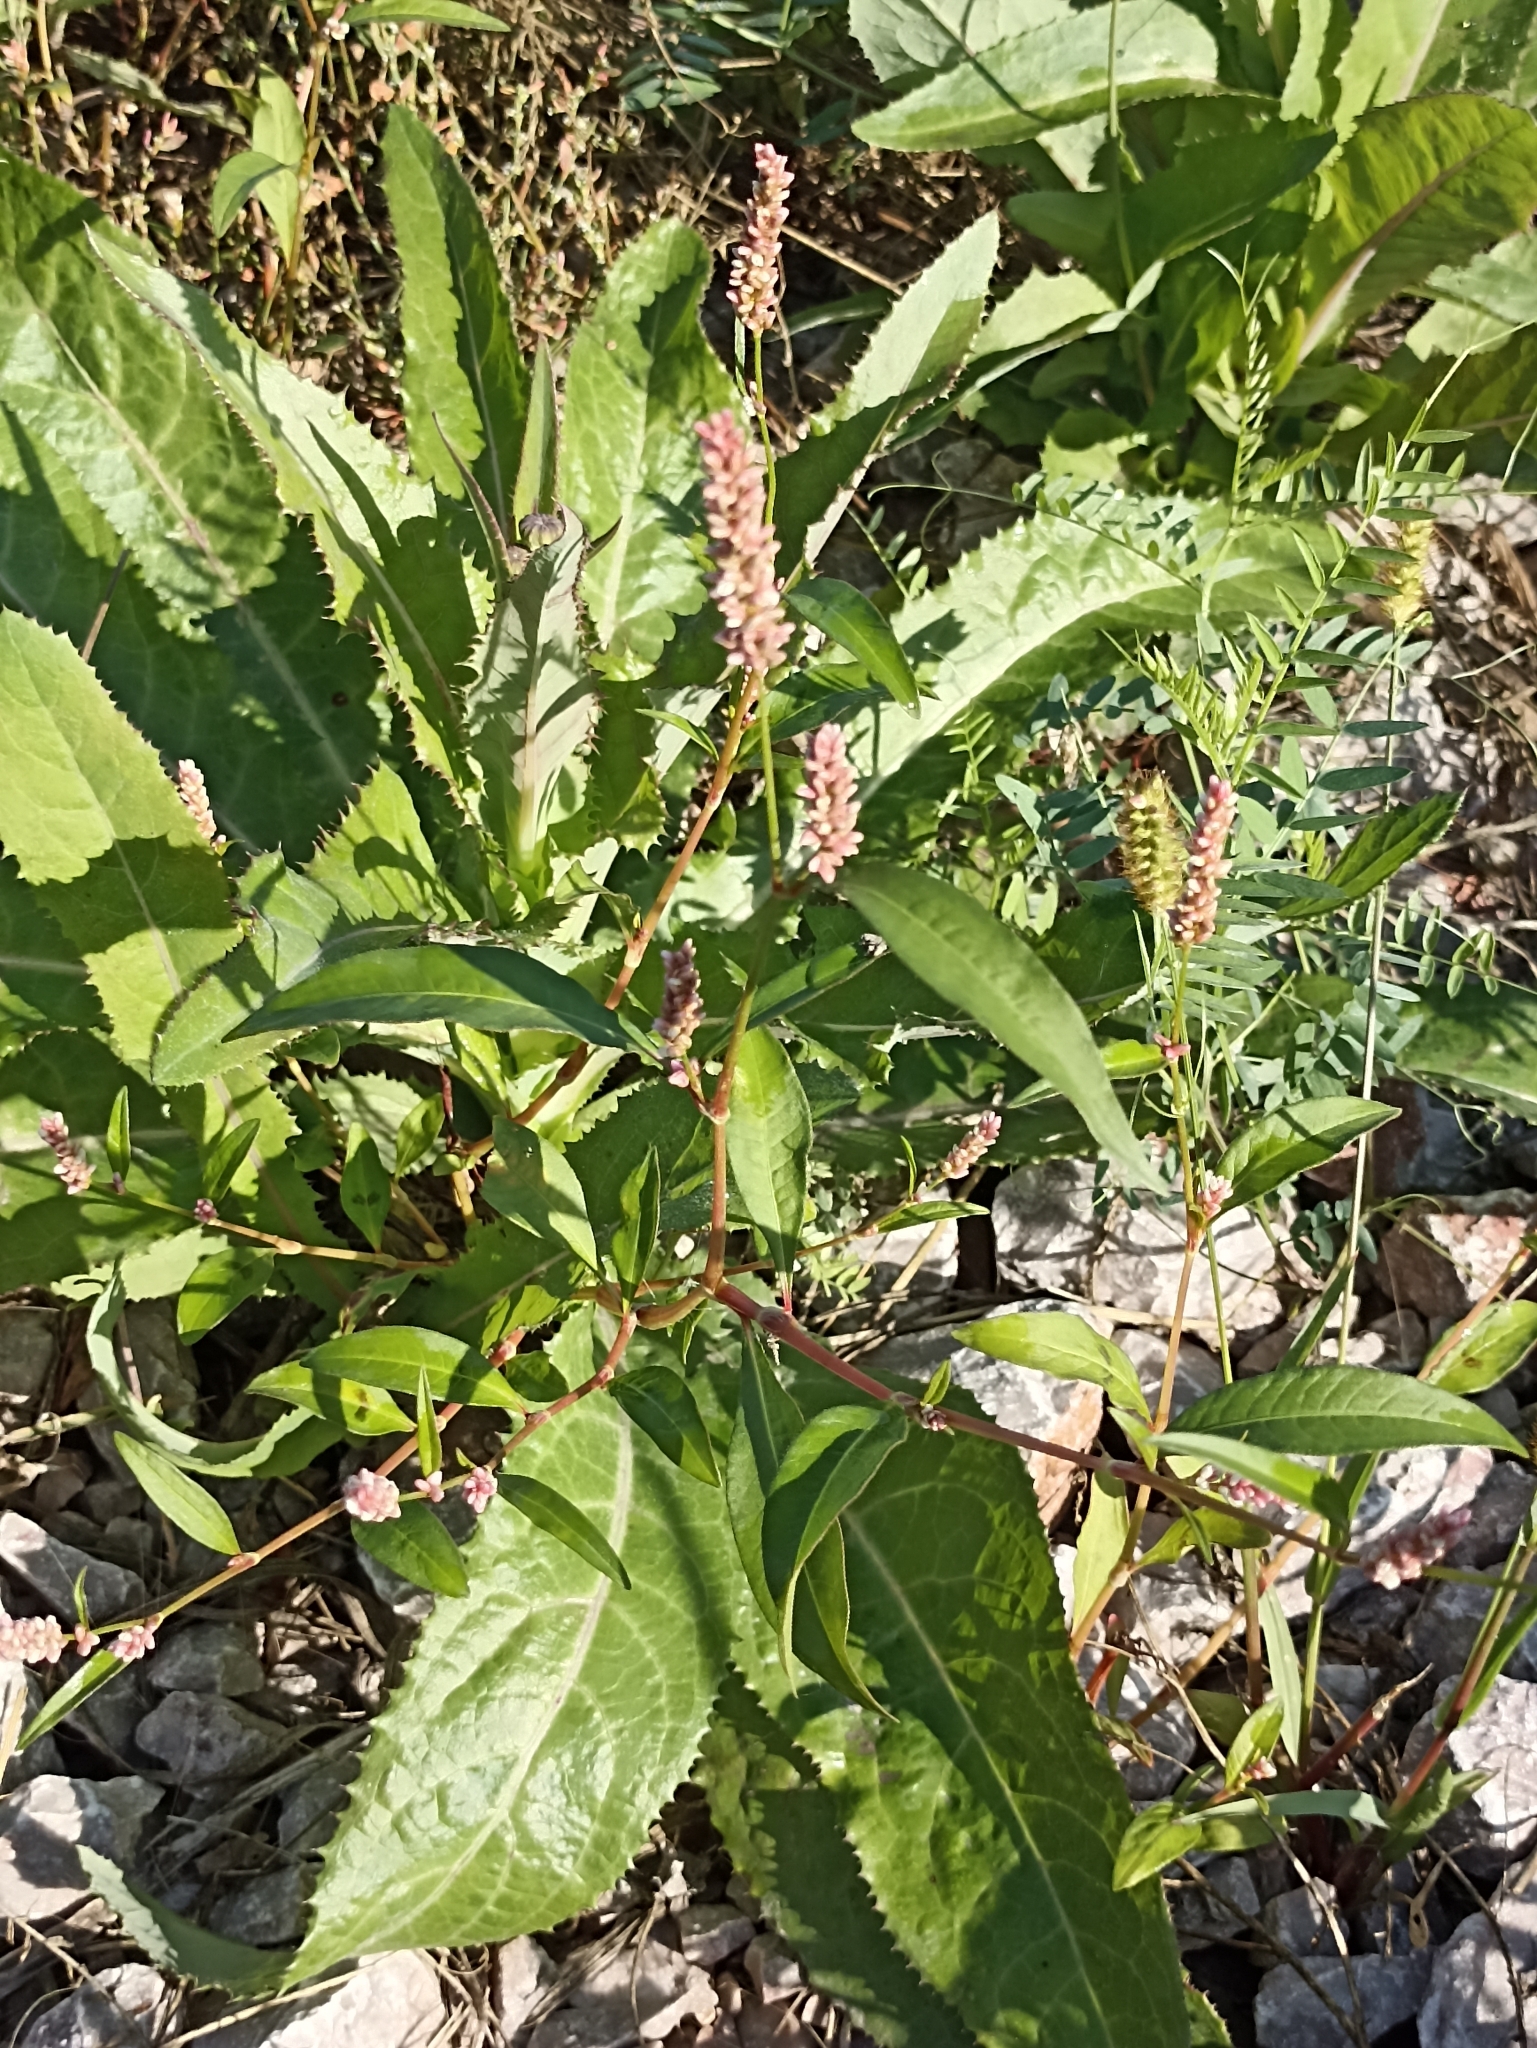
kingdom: Plantae
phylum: Tracheophyta
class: Magnoliopsida
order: Caryophyllales
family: Polygonaceae
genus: Persicaria
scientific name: Persicaria lapathifolia
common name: Curlytop knotweed
